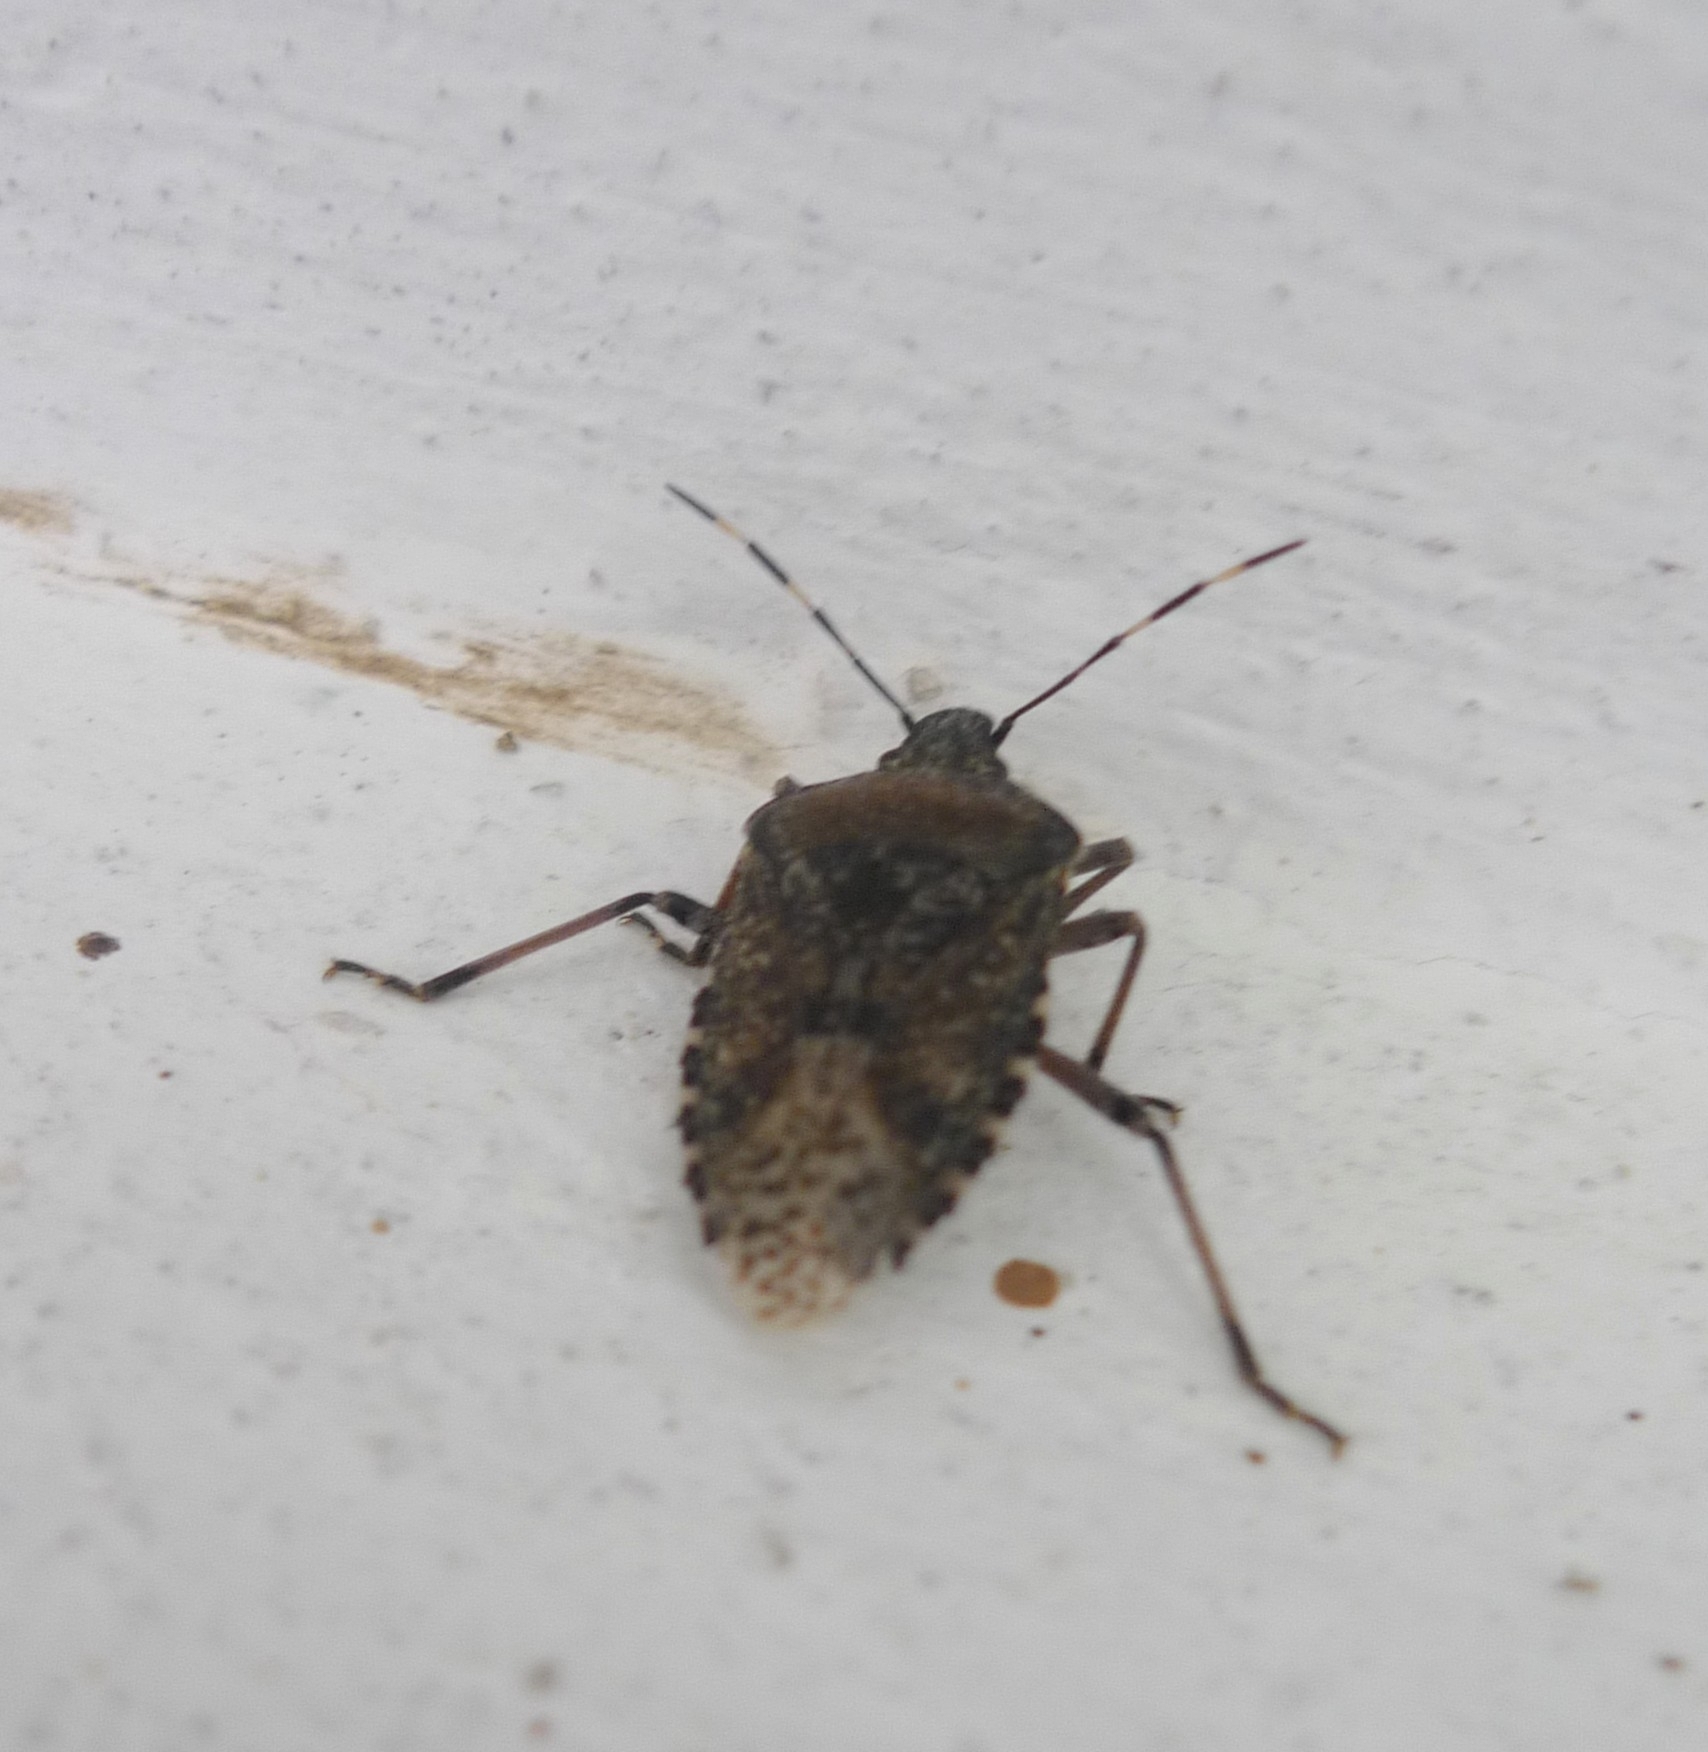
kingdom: Animalia
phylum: Arthropoda
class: Insecta
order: Hemiptera
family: Pentatomidae
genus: Rhaphigaster
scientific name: Rhaphigaster nebulosa
